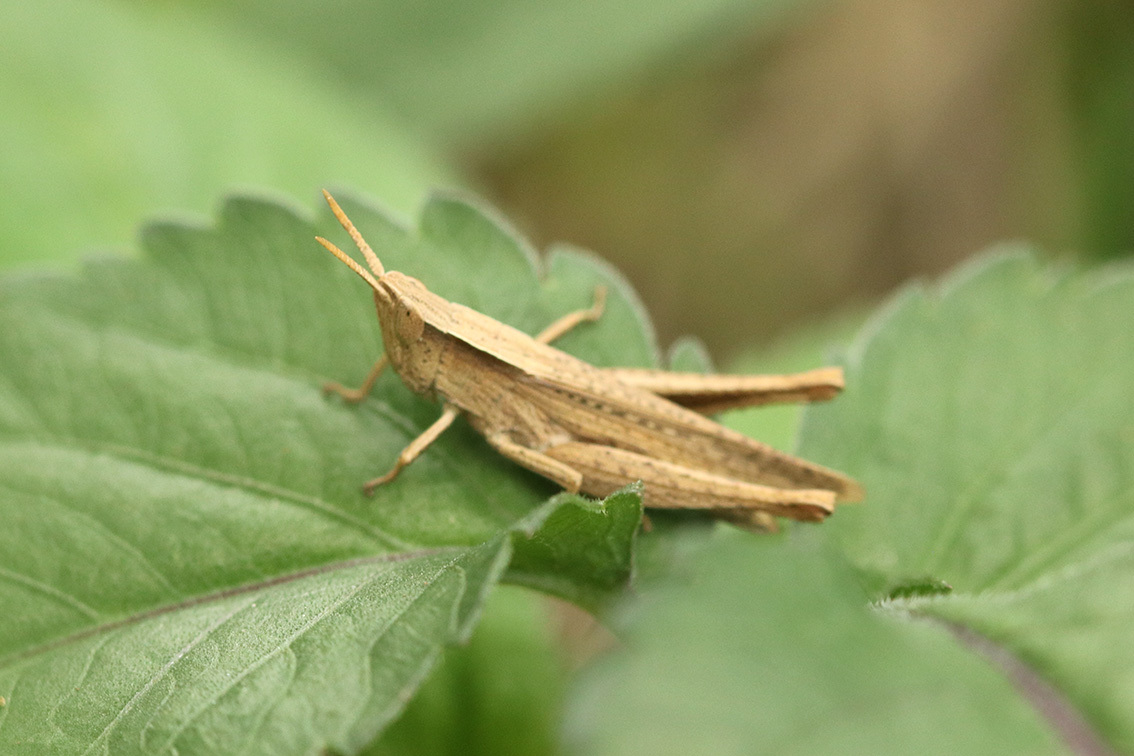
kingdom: Animalia
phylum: Arthropoda
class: Insecta
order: Orthoptera
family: Acrididae
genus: Laplatacris
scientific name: Laplatacris dispar
